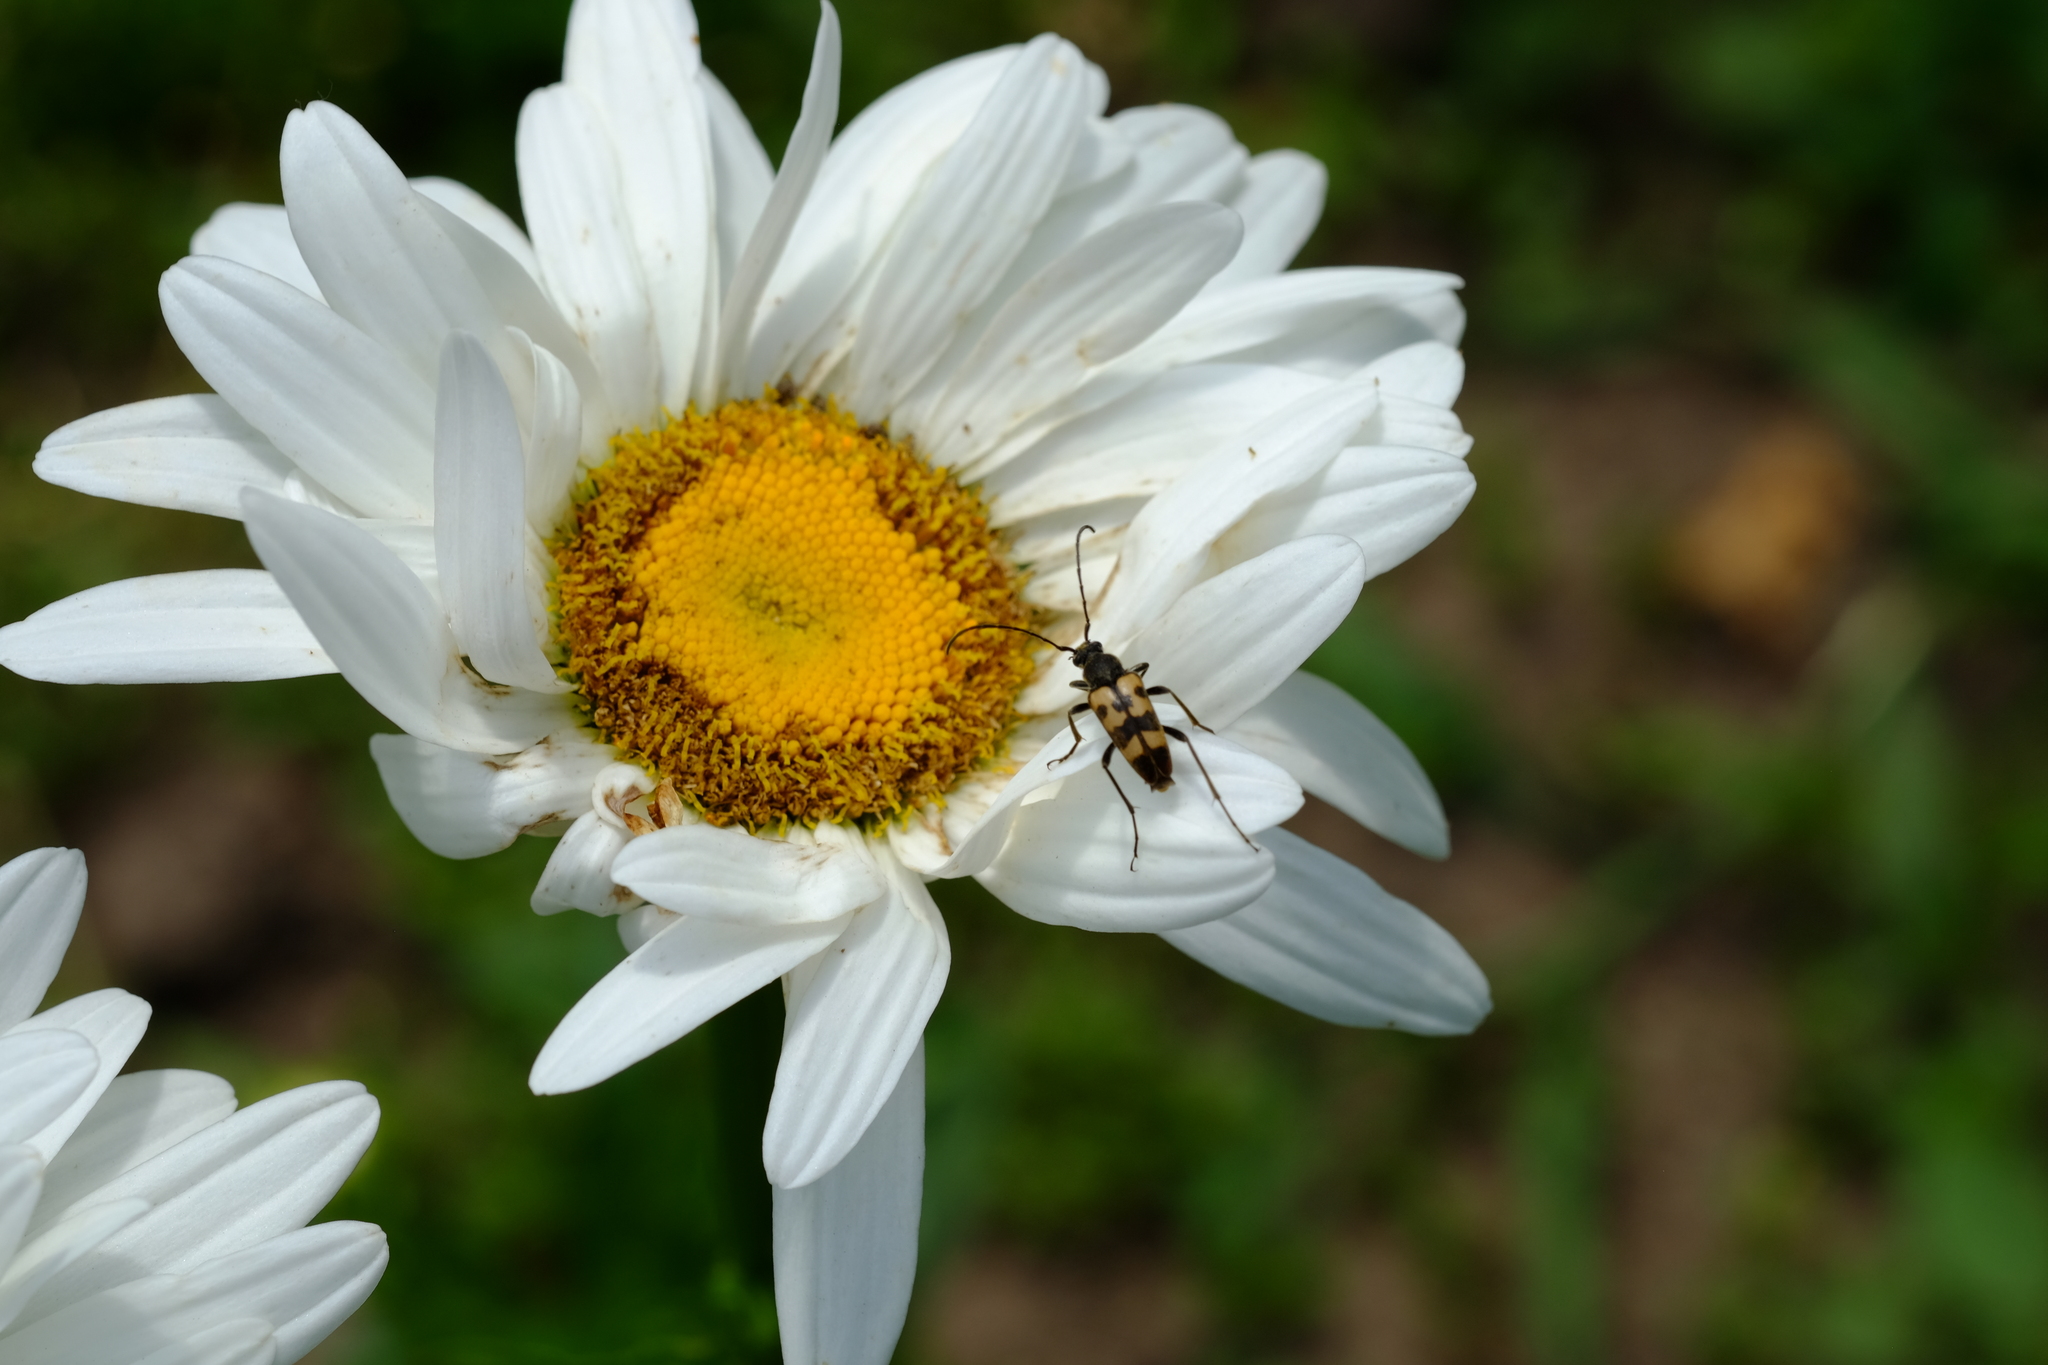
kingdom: Animalia
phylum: Arthropoda
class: Insecta
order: Coleoptera
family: Cerambycidae
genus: Pachytodes
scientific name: Pachytodes
